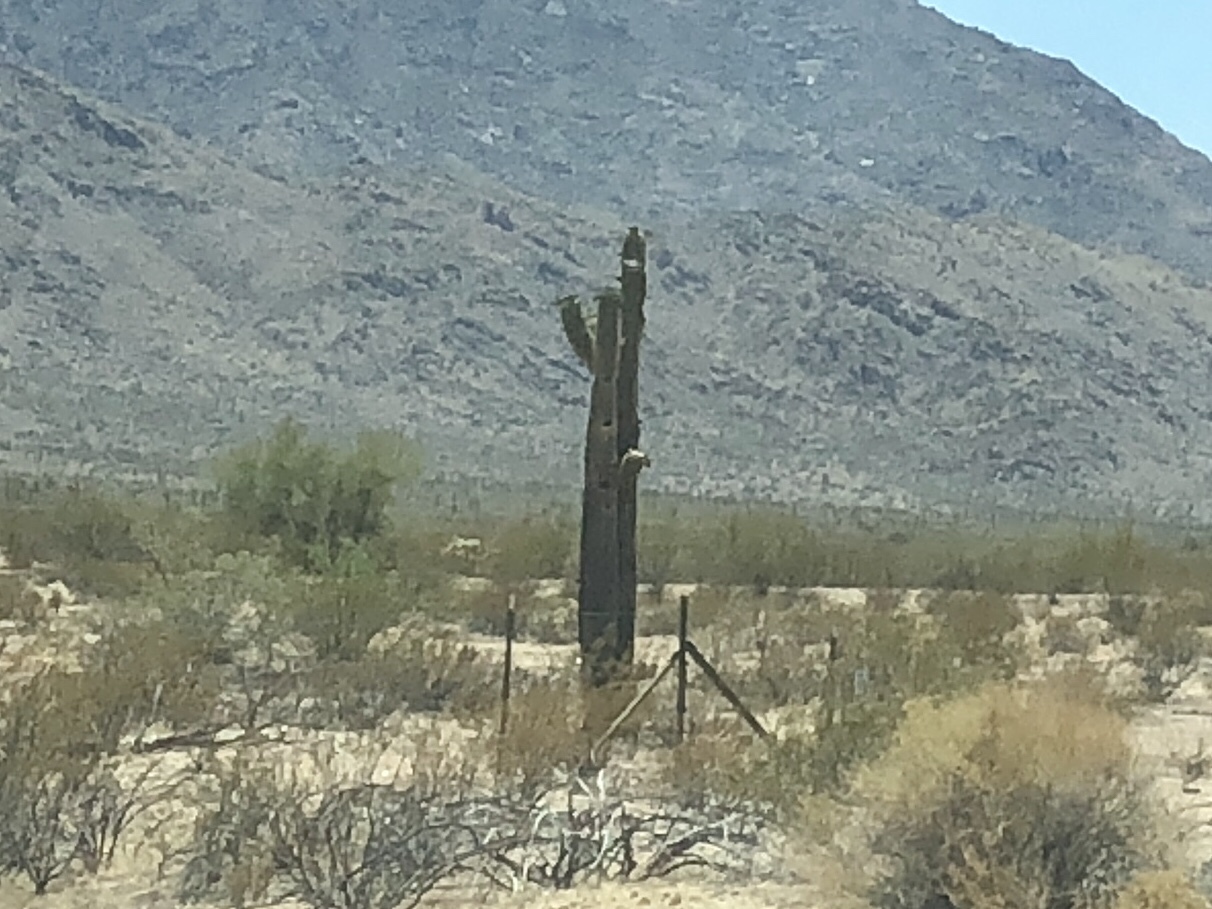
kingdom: Plantae
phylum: Tracheophyta
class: Magnoliopsida
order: Caryophyllales
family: Cactaceae
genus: Carnegiea
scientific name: Carnegiea gigantea
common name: Saguaro
